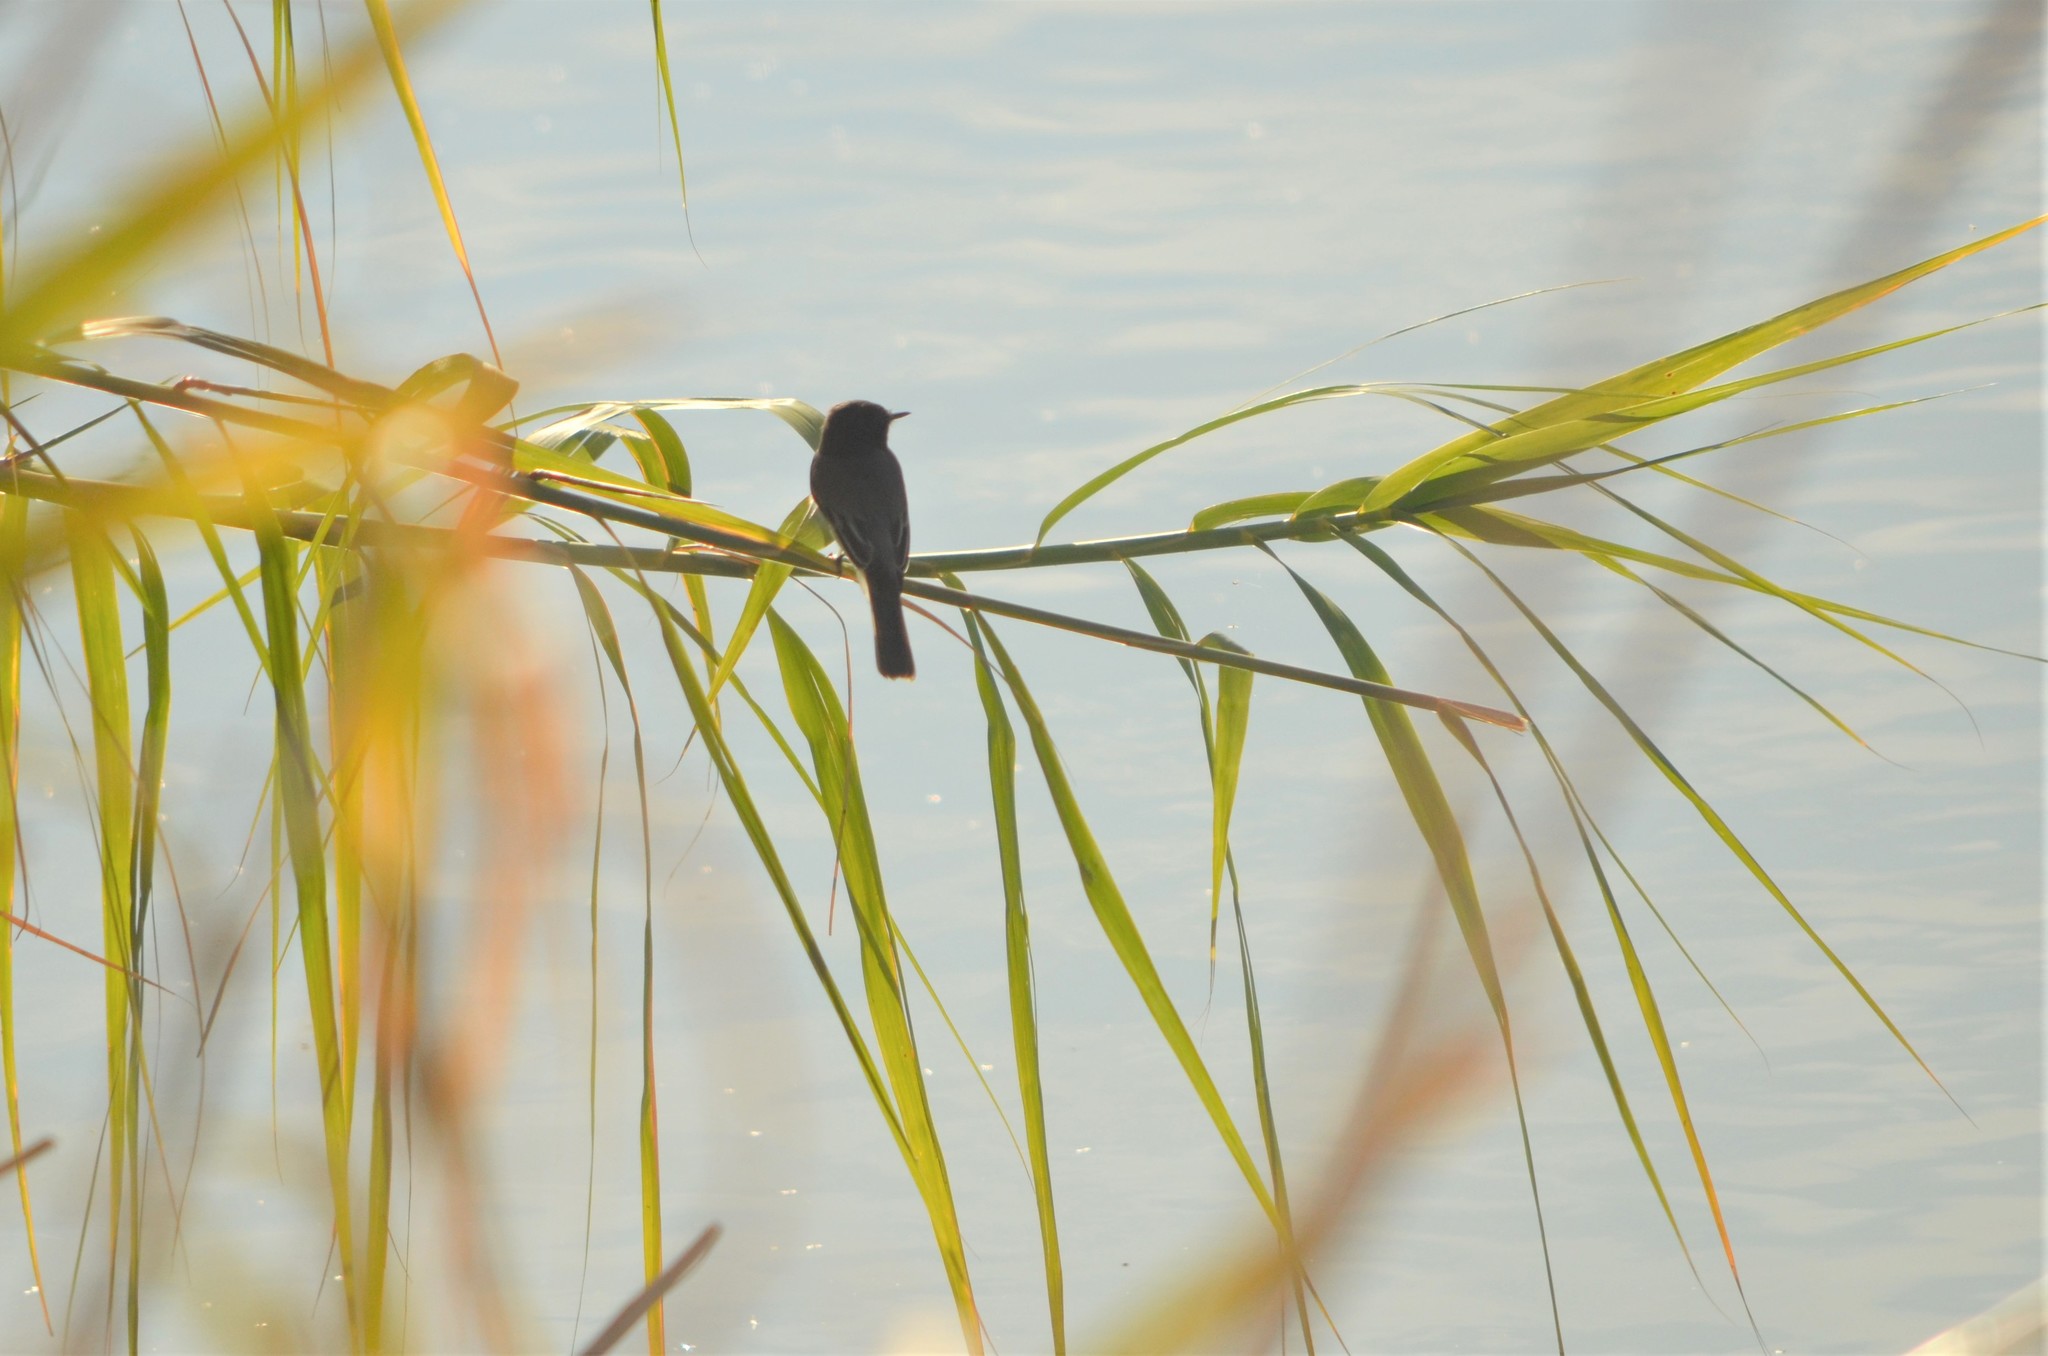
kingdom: Animalia
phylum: Chordata
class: Aves
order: Passeriformes
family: Tyrannidae
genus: Sayornis
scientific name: Sayornis nigricans
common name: Black phoebe
